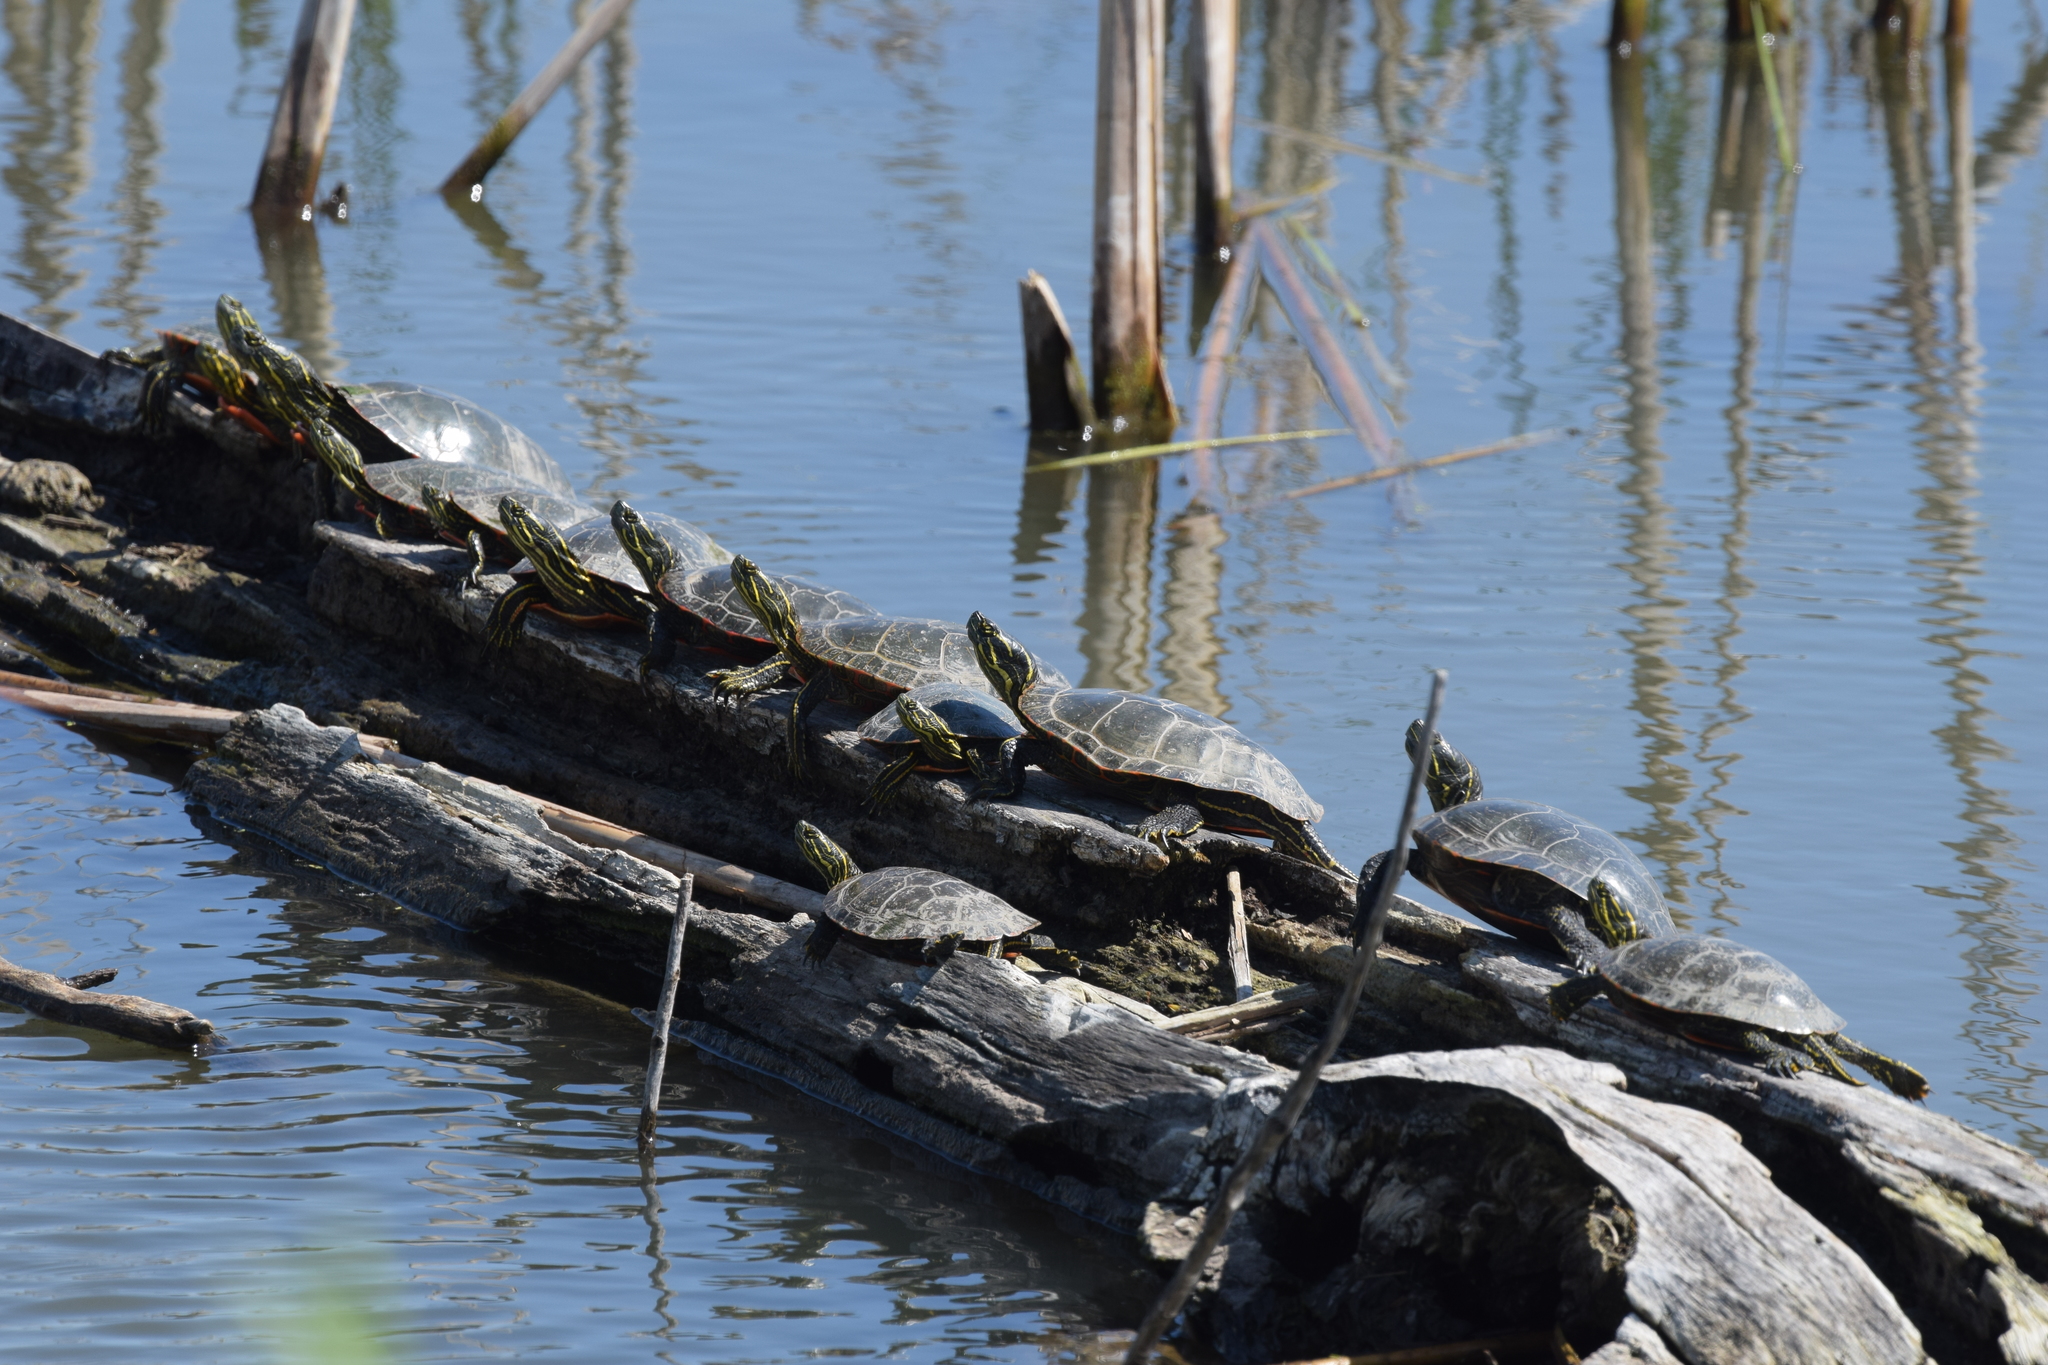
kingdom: Animalia
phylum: Chordata
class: Testudines
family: Emydidae
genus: Chrysemys
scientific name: Chrysemys picta
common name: Painted turtle
